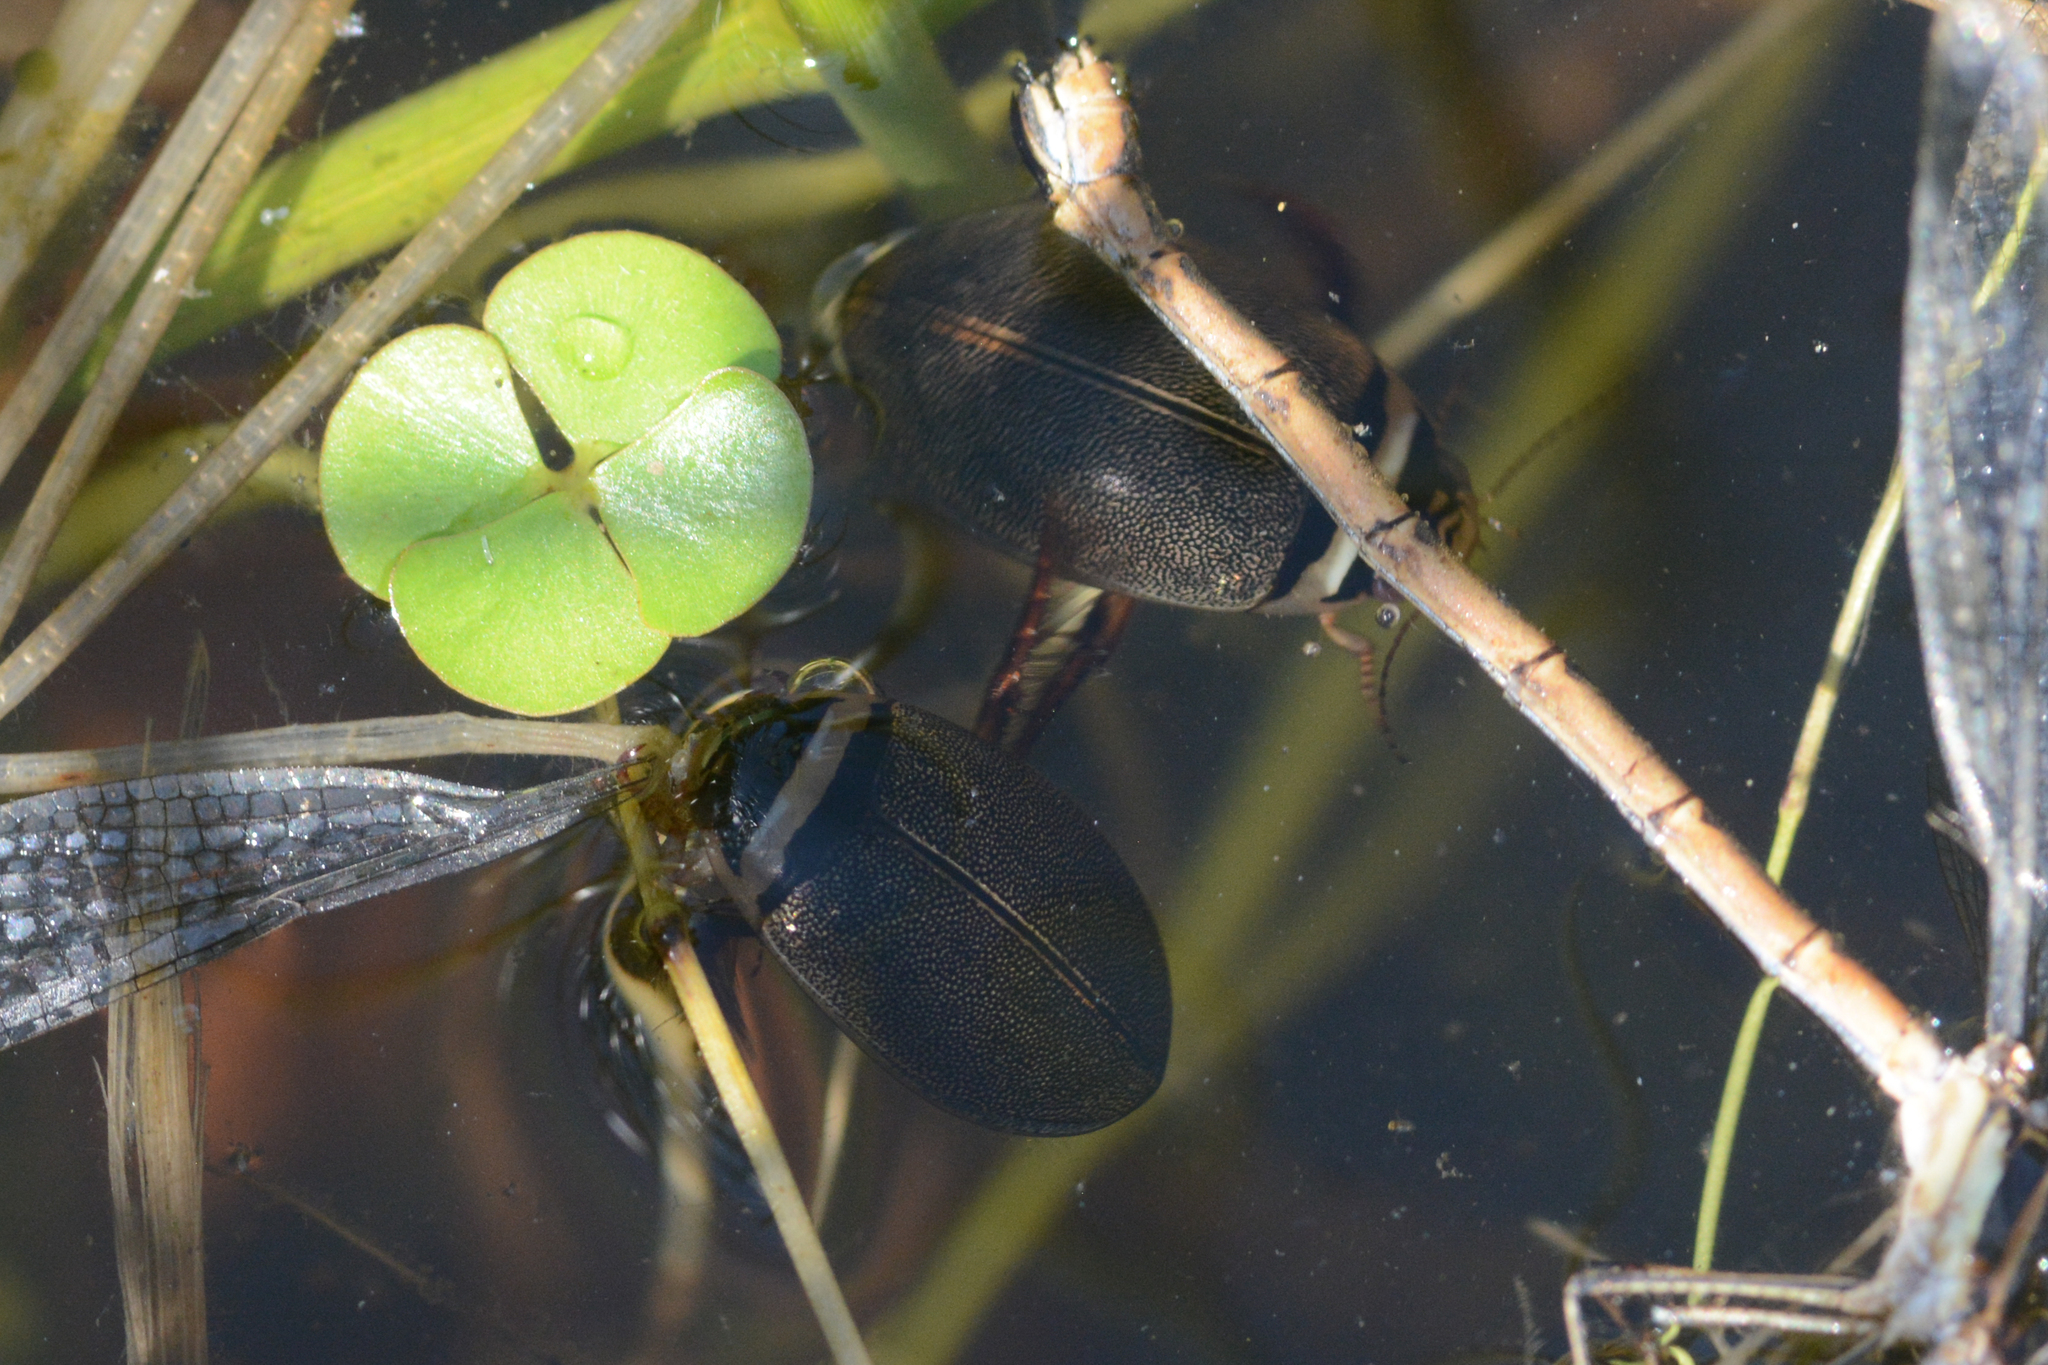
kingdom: Animalia
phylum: Arthropoda
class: Insecta
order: Coleoptera
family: Dytiscidae
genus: Graphoderus
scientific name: Graphoderus occidentalis
